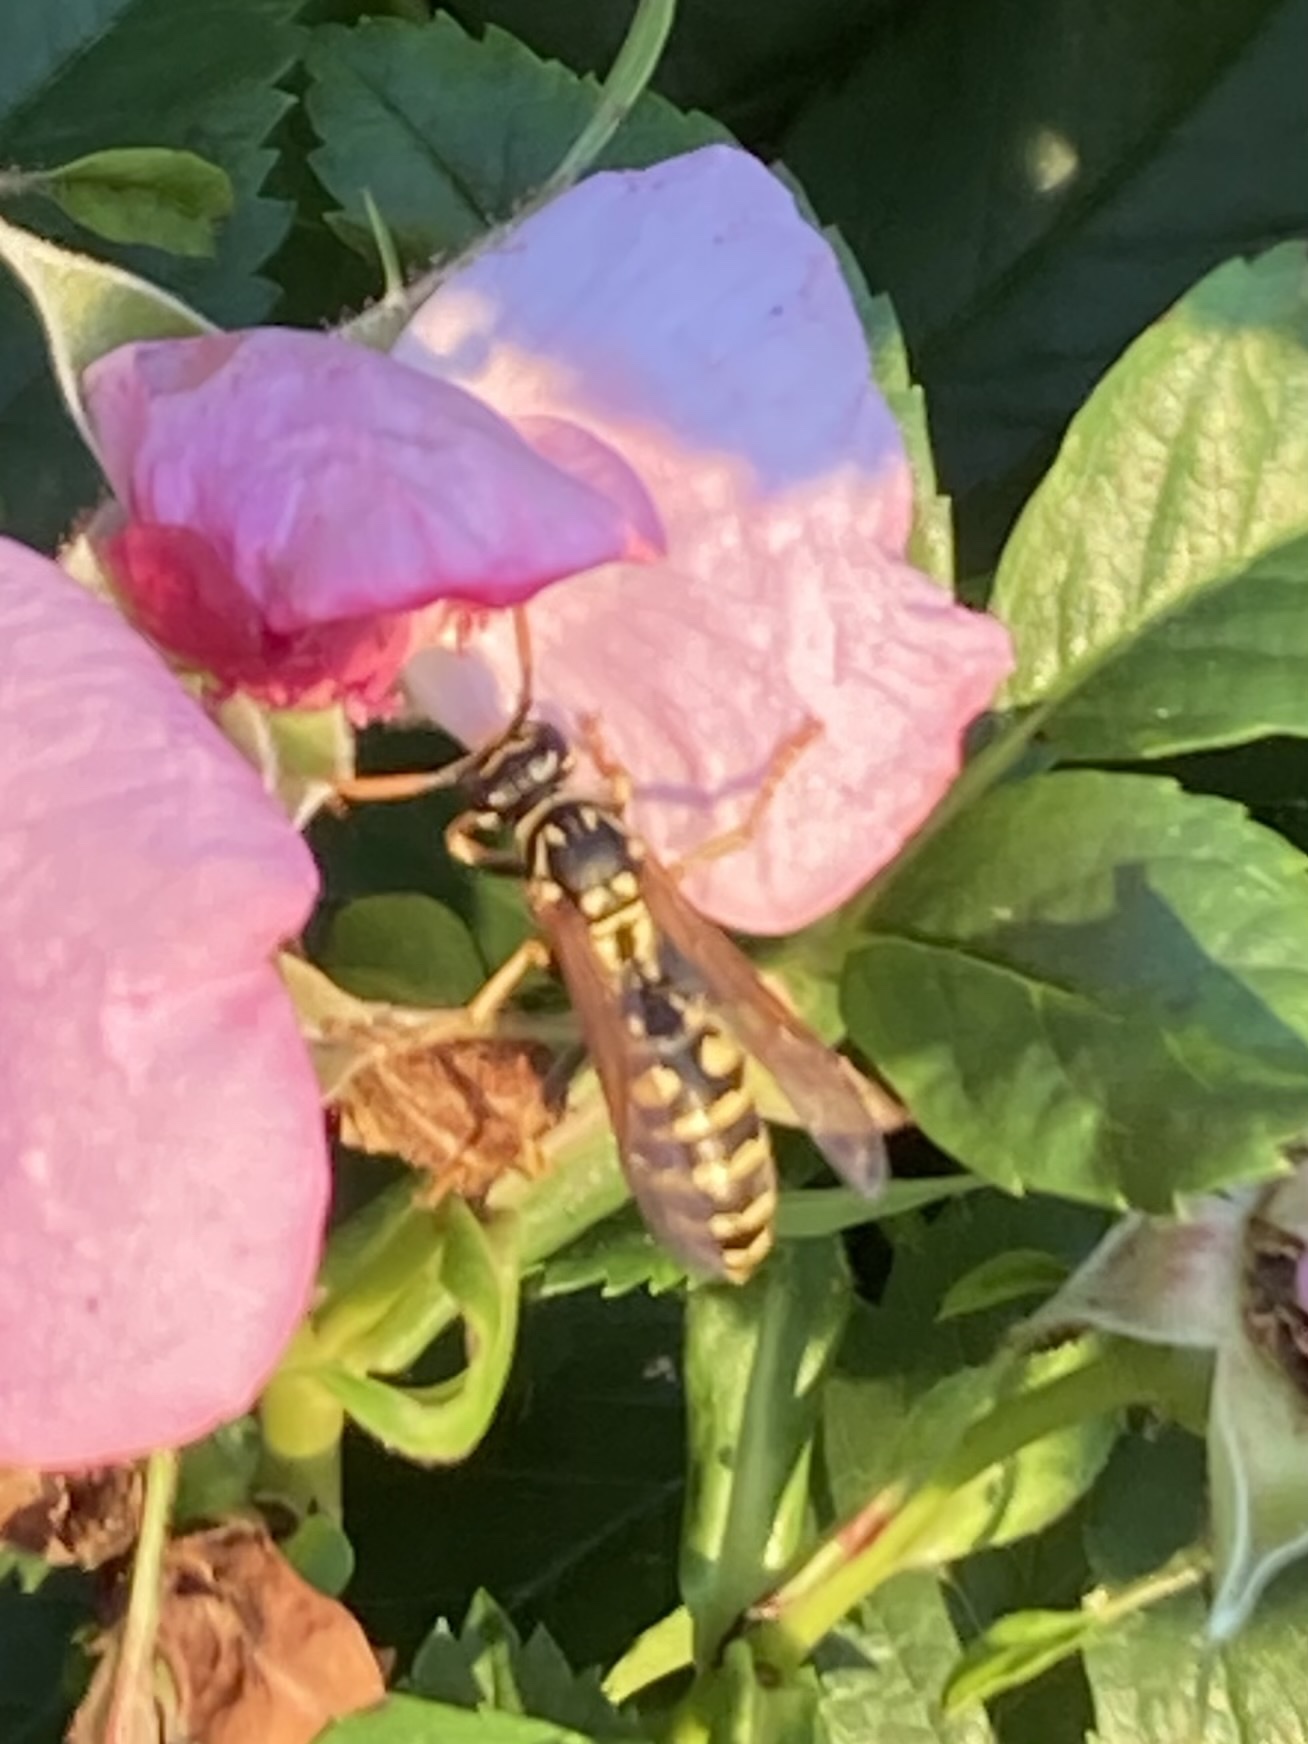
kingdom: Animalia
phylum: Arthropoda
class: Insecta
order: Hymenoptera
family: Eumenidae
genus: Polistes
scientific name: Polistes dominula
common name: Paper wasp
